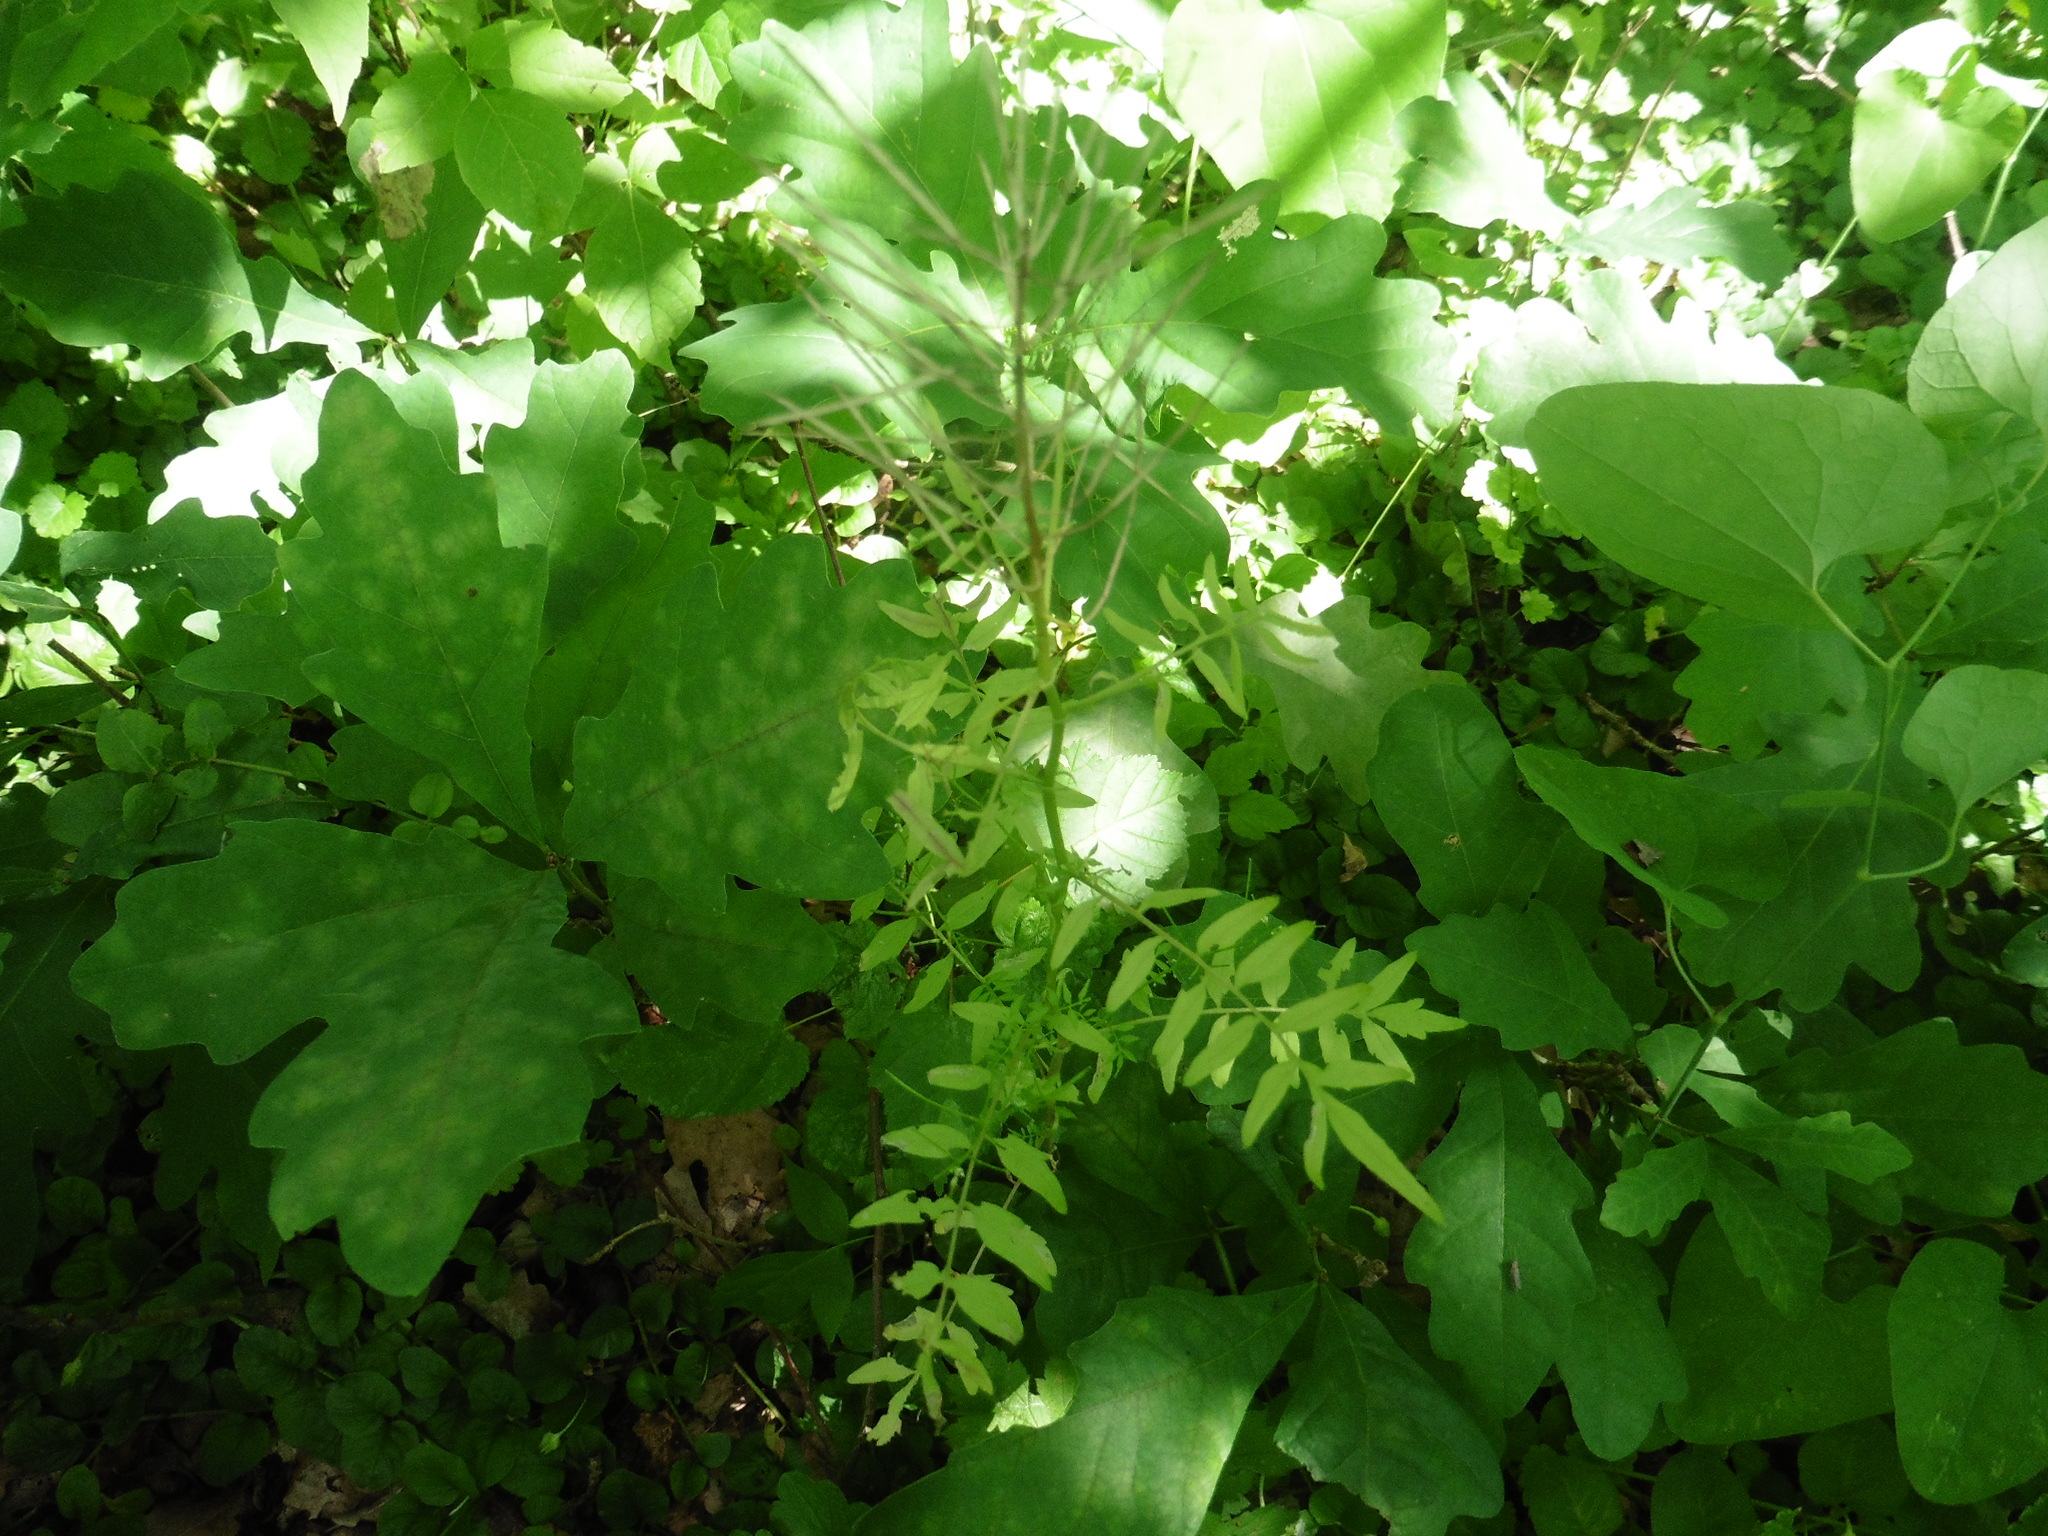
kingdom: Plantae
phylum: Tracheophyta
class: Magnoliopsida
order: Brassicales
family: Brassicaceae
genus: Cardamine
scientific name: Cardamine impatiens
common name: Narrow-leaved bitter-cress
